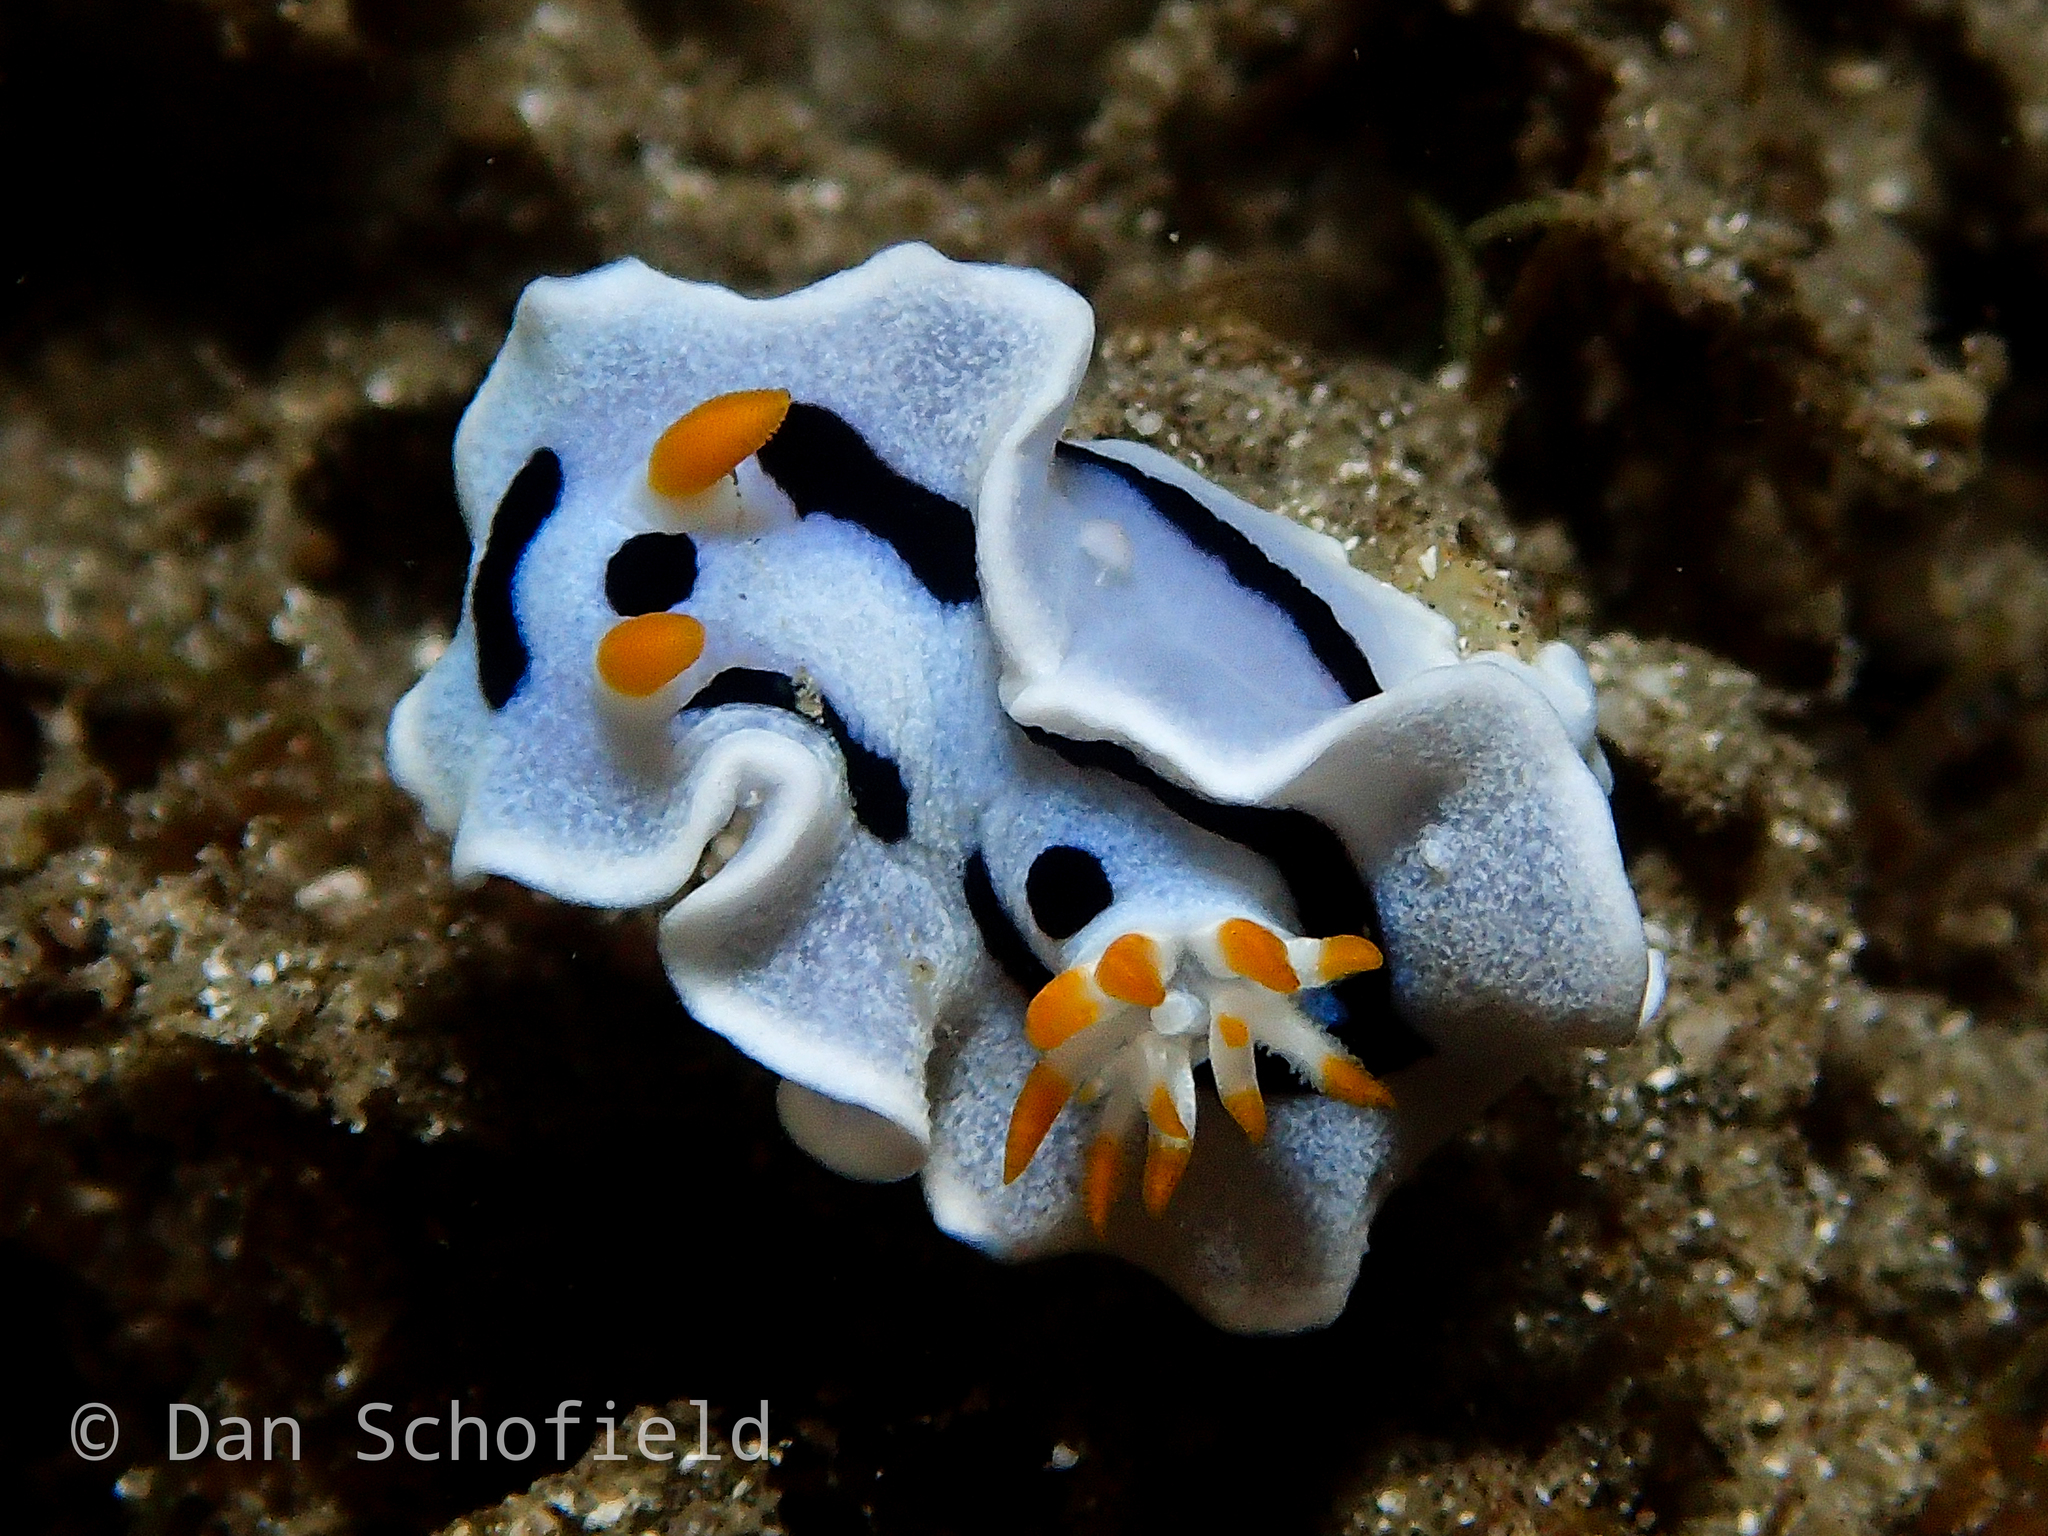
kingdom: Animalia
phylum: Mollusca
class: Gastropoda
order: Nudibranchia
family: Chromodorididae
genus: Chromodoris
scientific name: Chromodoris alcalai
